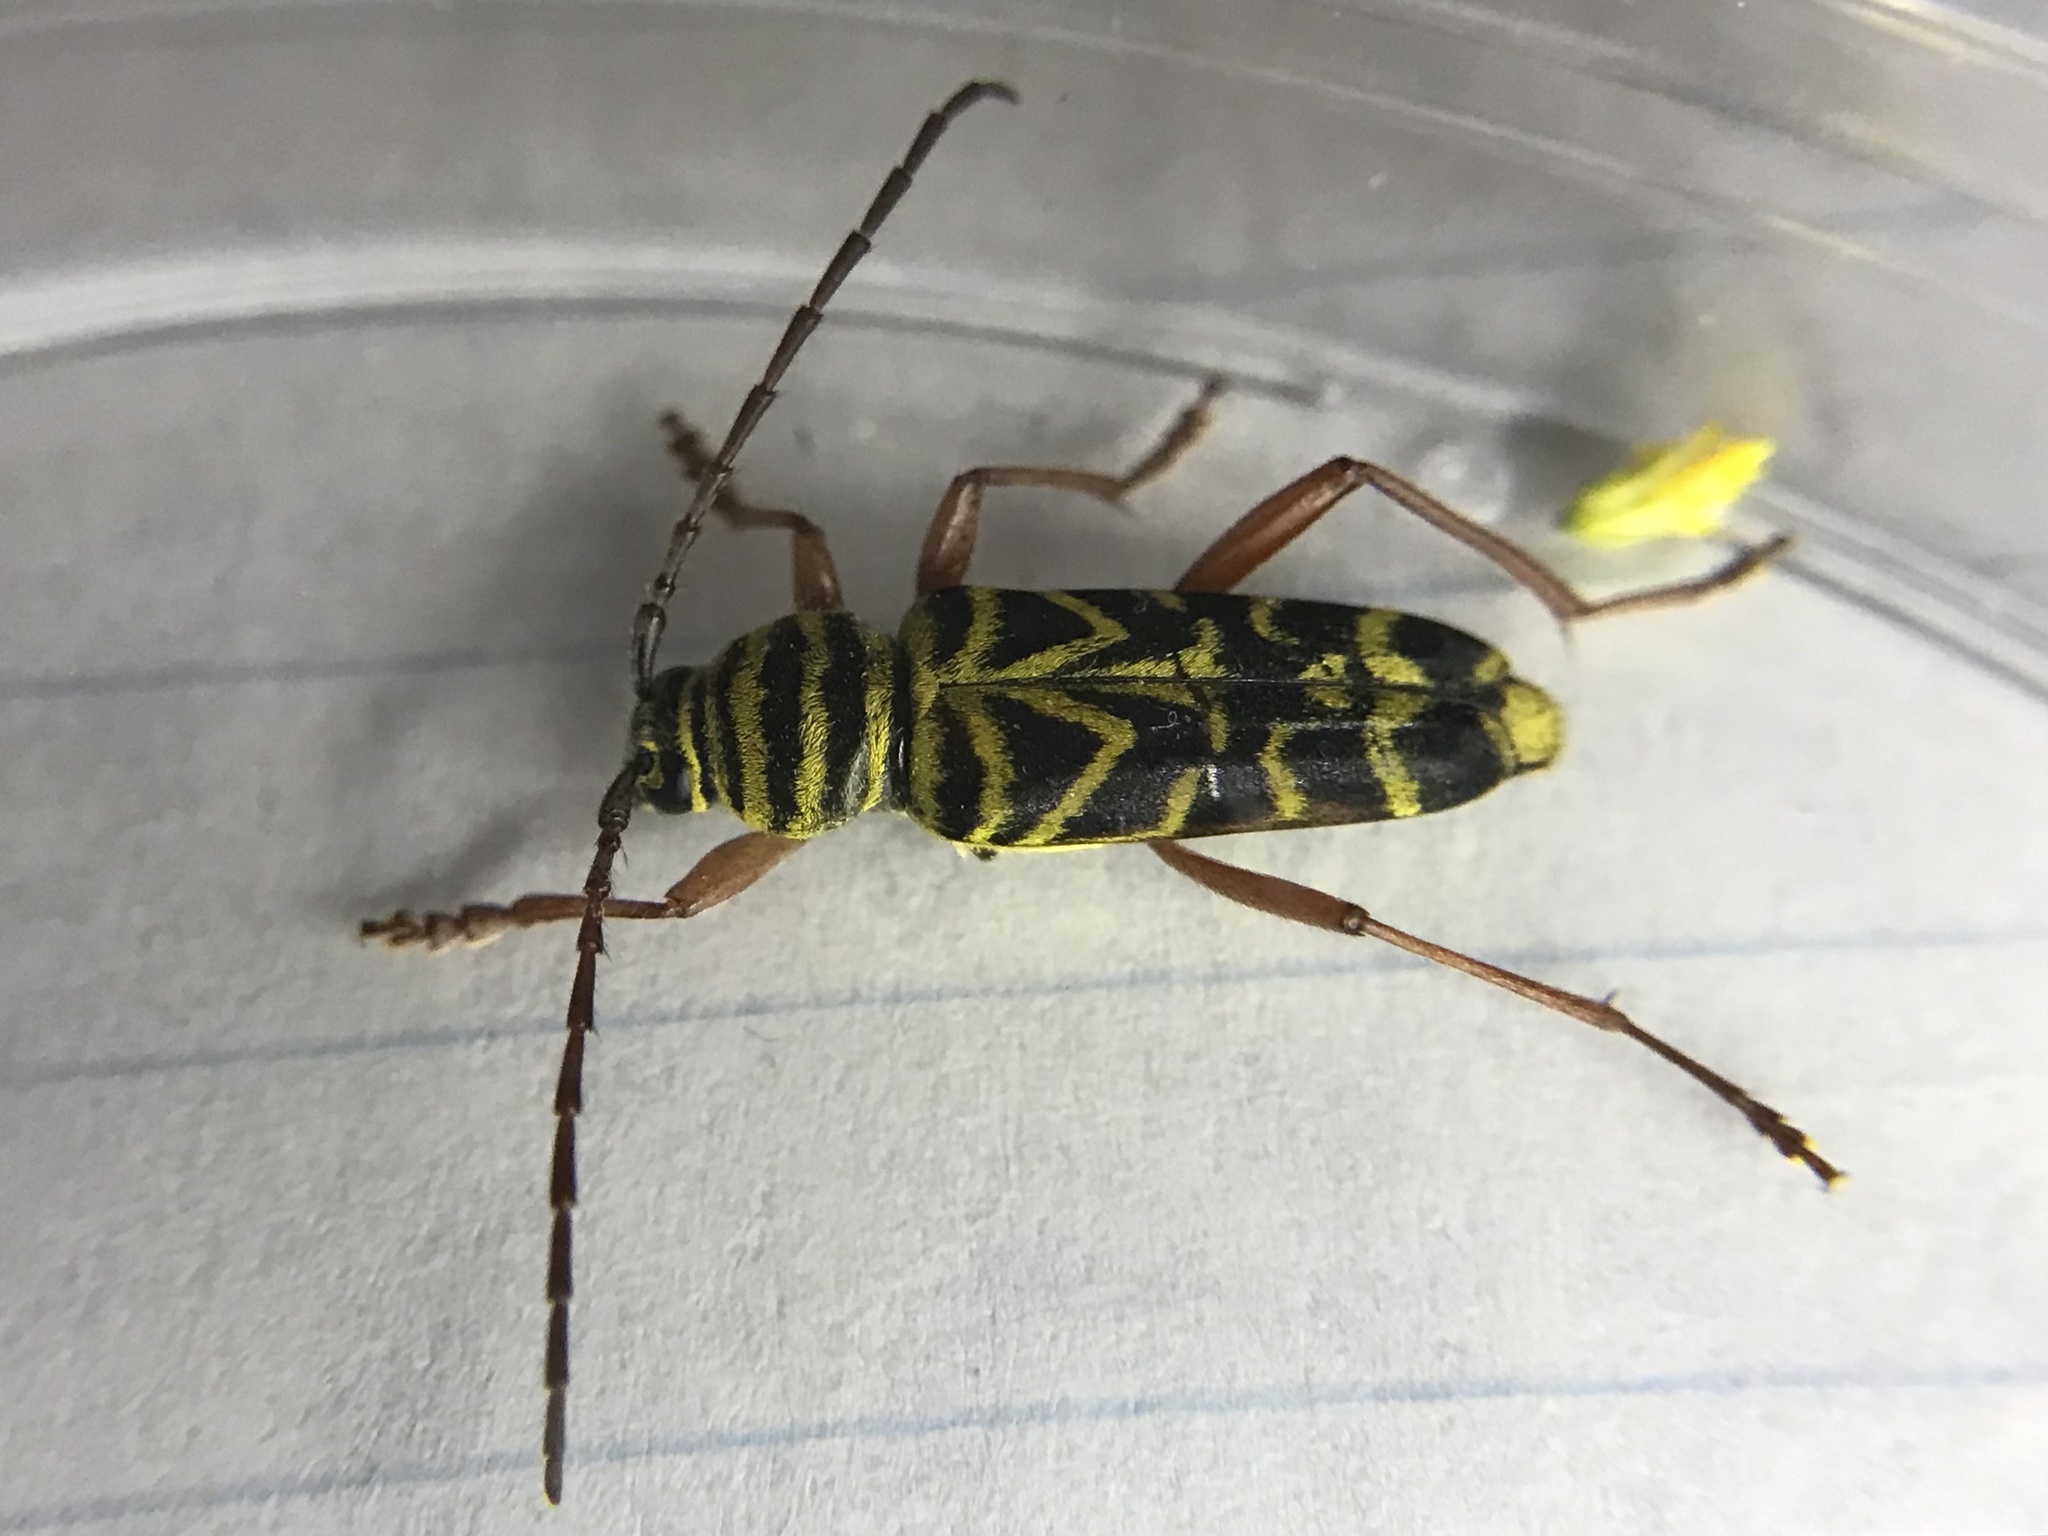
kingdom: Animalia
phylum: Arthropoda
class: Insecta
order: Coleoptera
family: Cerambycidae
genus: Megacyllene
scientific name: Megacyllene robiniae
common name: Locust borer
